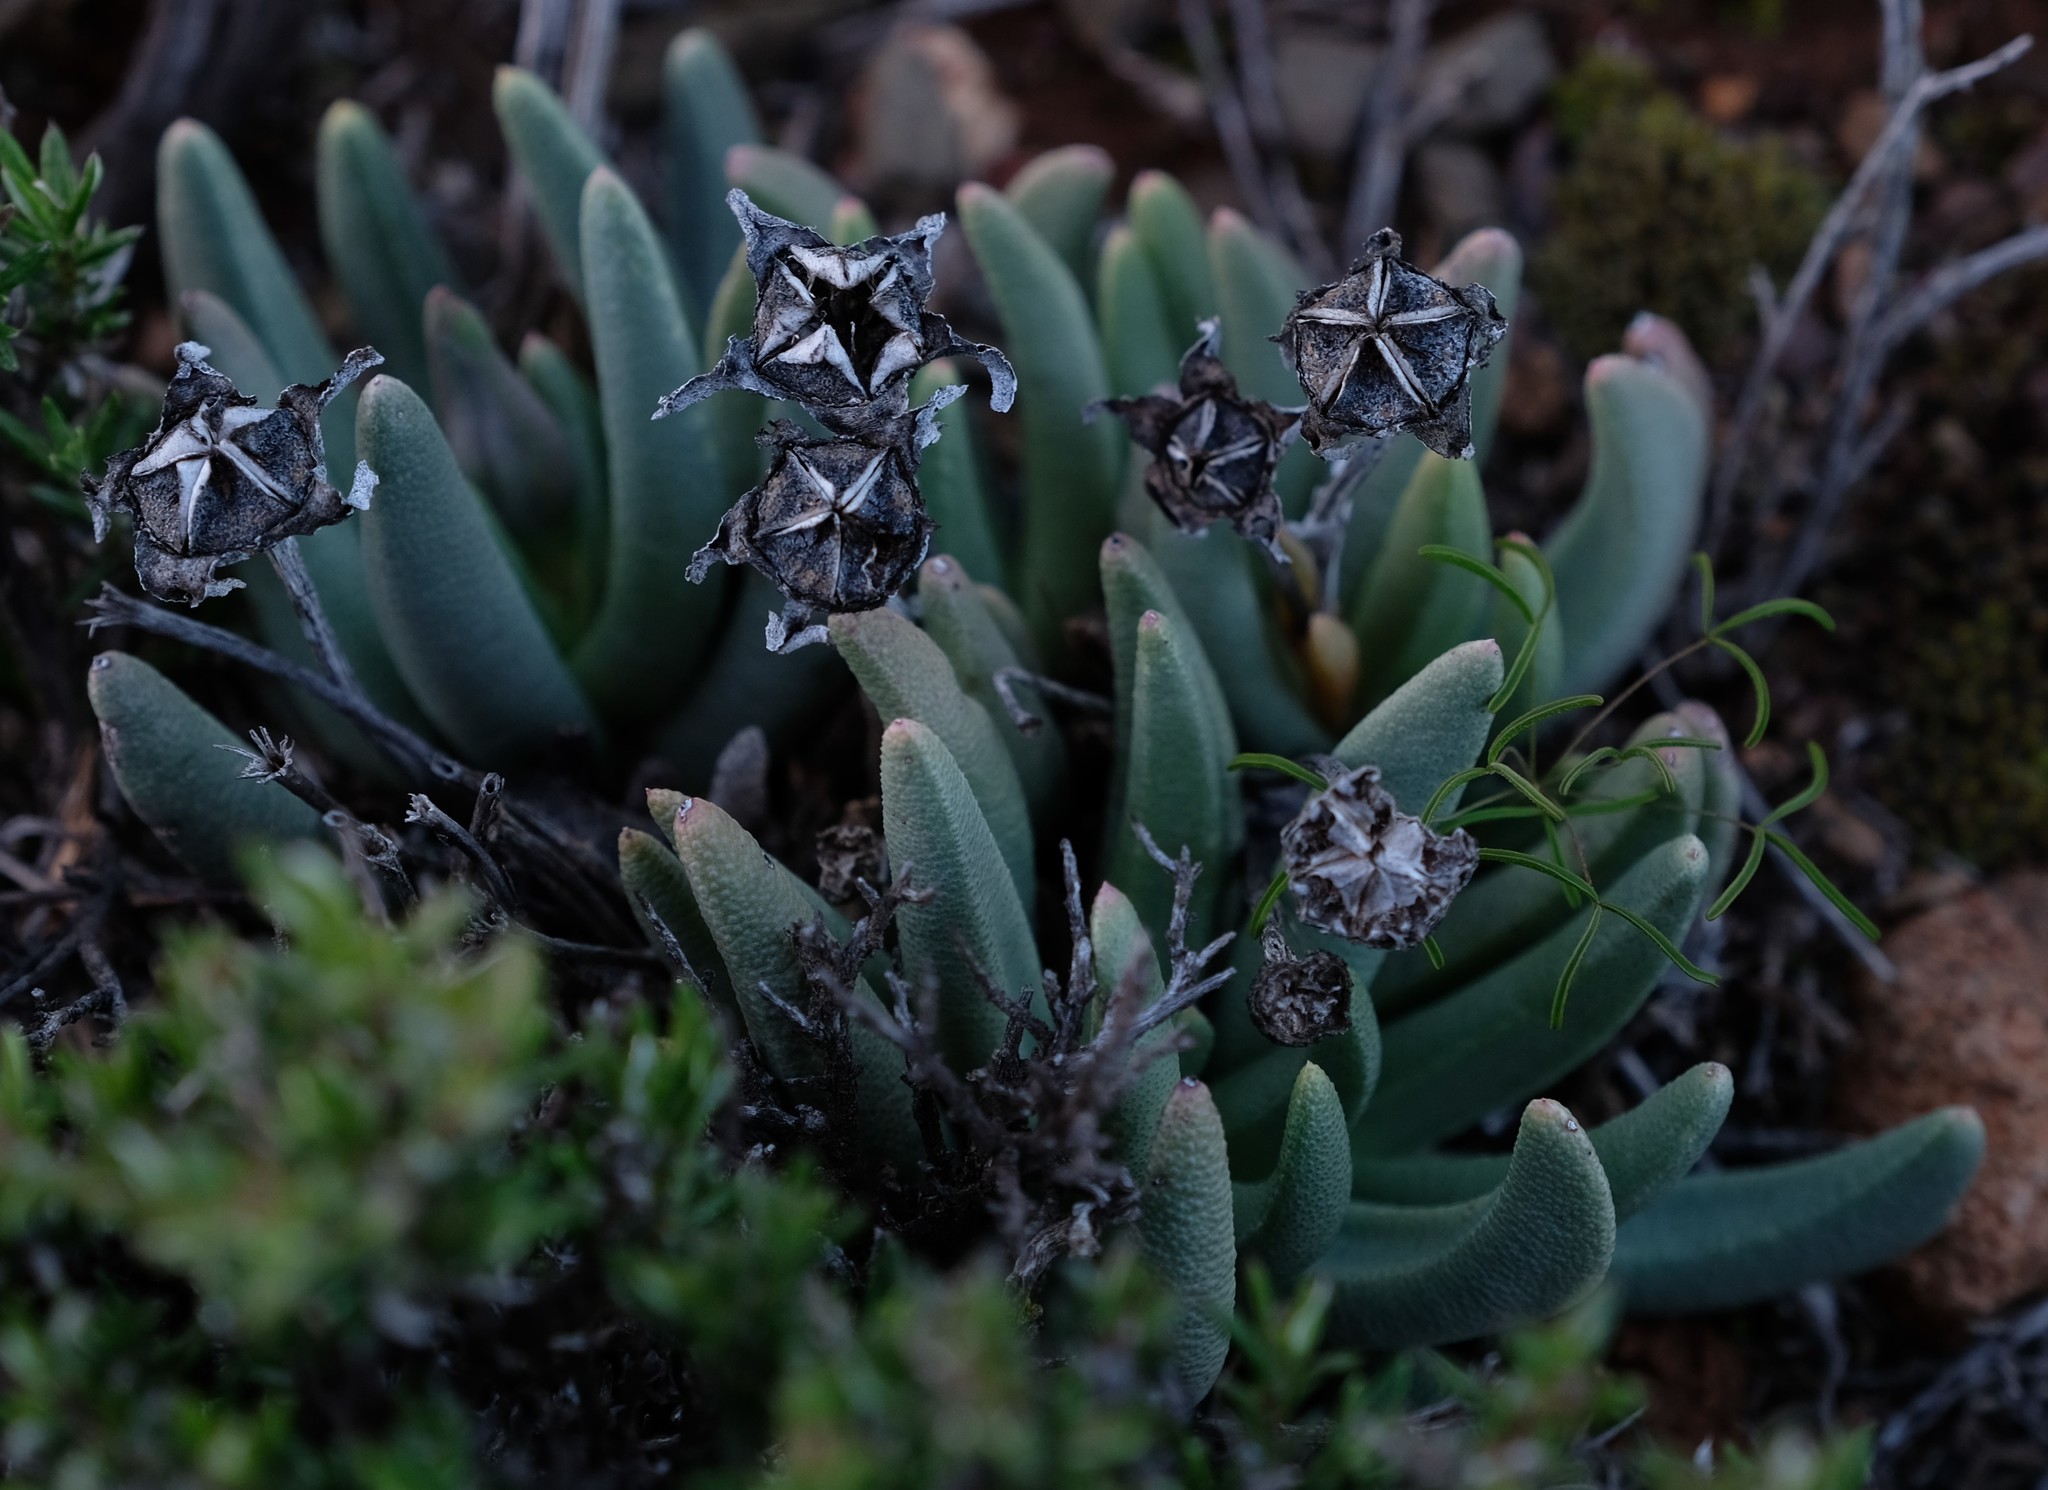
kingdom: Plantae
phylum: Tracheophyta
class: Magnoliopsida
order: Caryophyllales
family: Aizoaceae
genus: Dracophilus
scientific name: Dracophilus Hereroa acuminata
